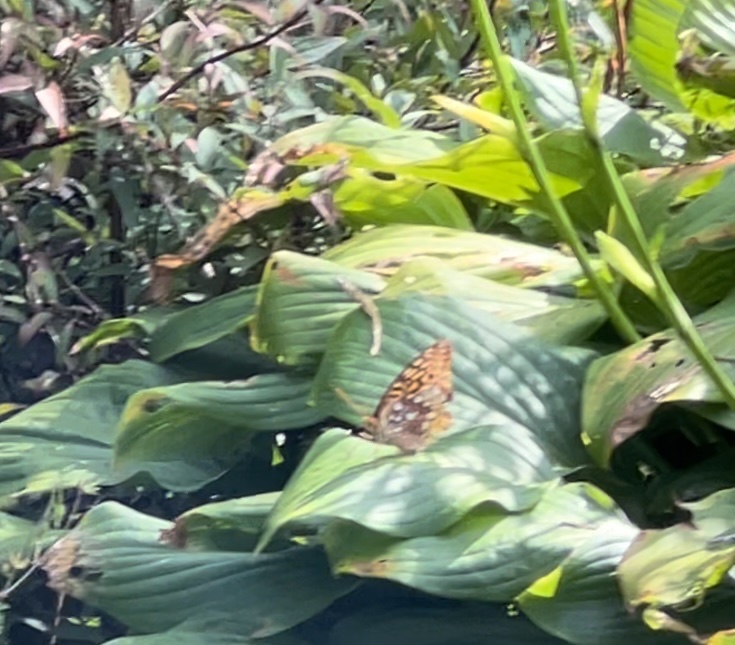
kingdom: Animalia
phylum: Arthropoda
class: Insecta
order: Lepidoptera
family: Nymphalidae
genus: Speyeria
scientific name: Speyeria cybele
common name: Great spangled fritillary
